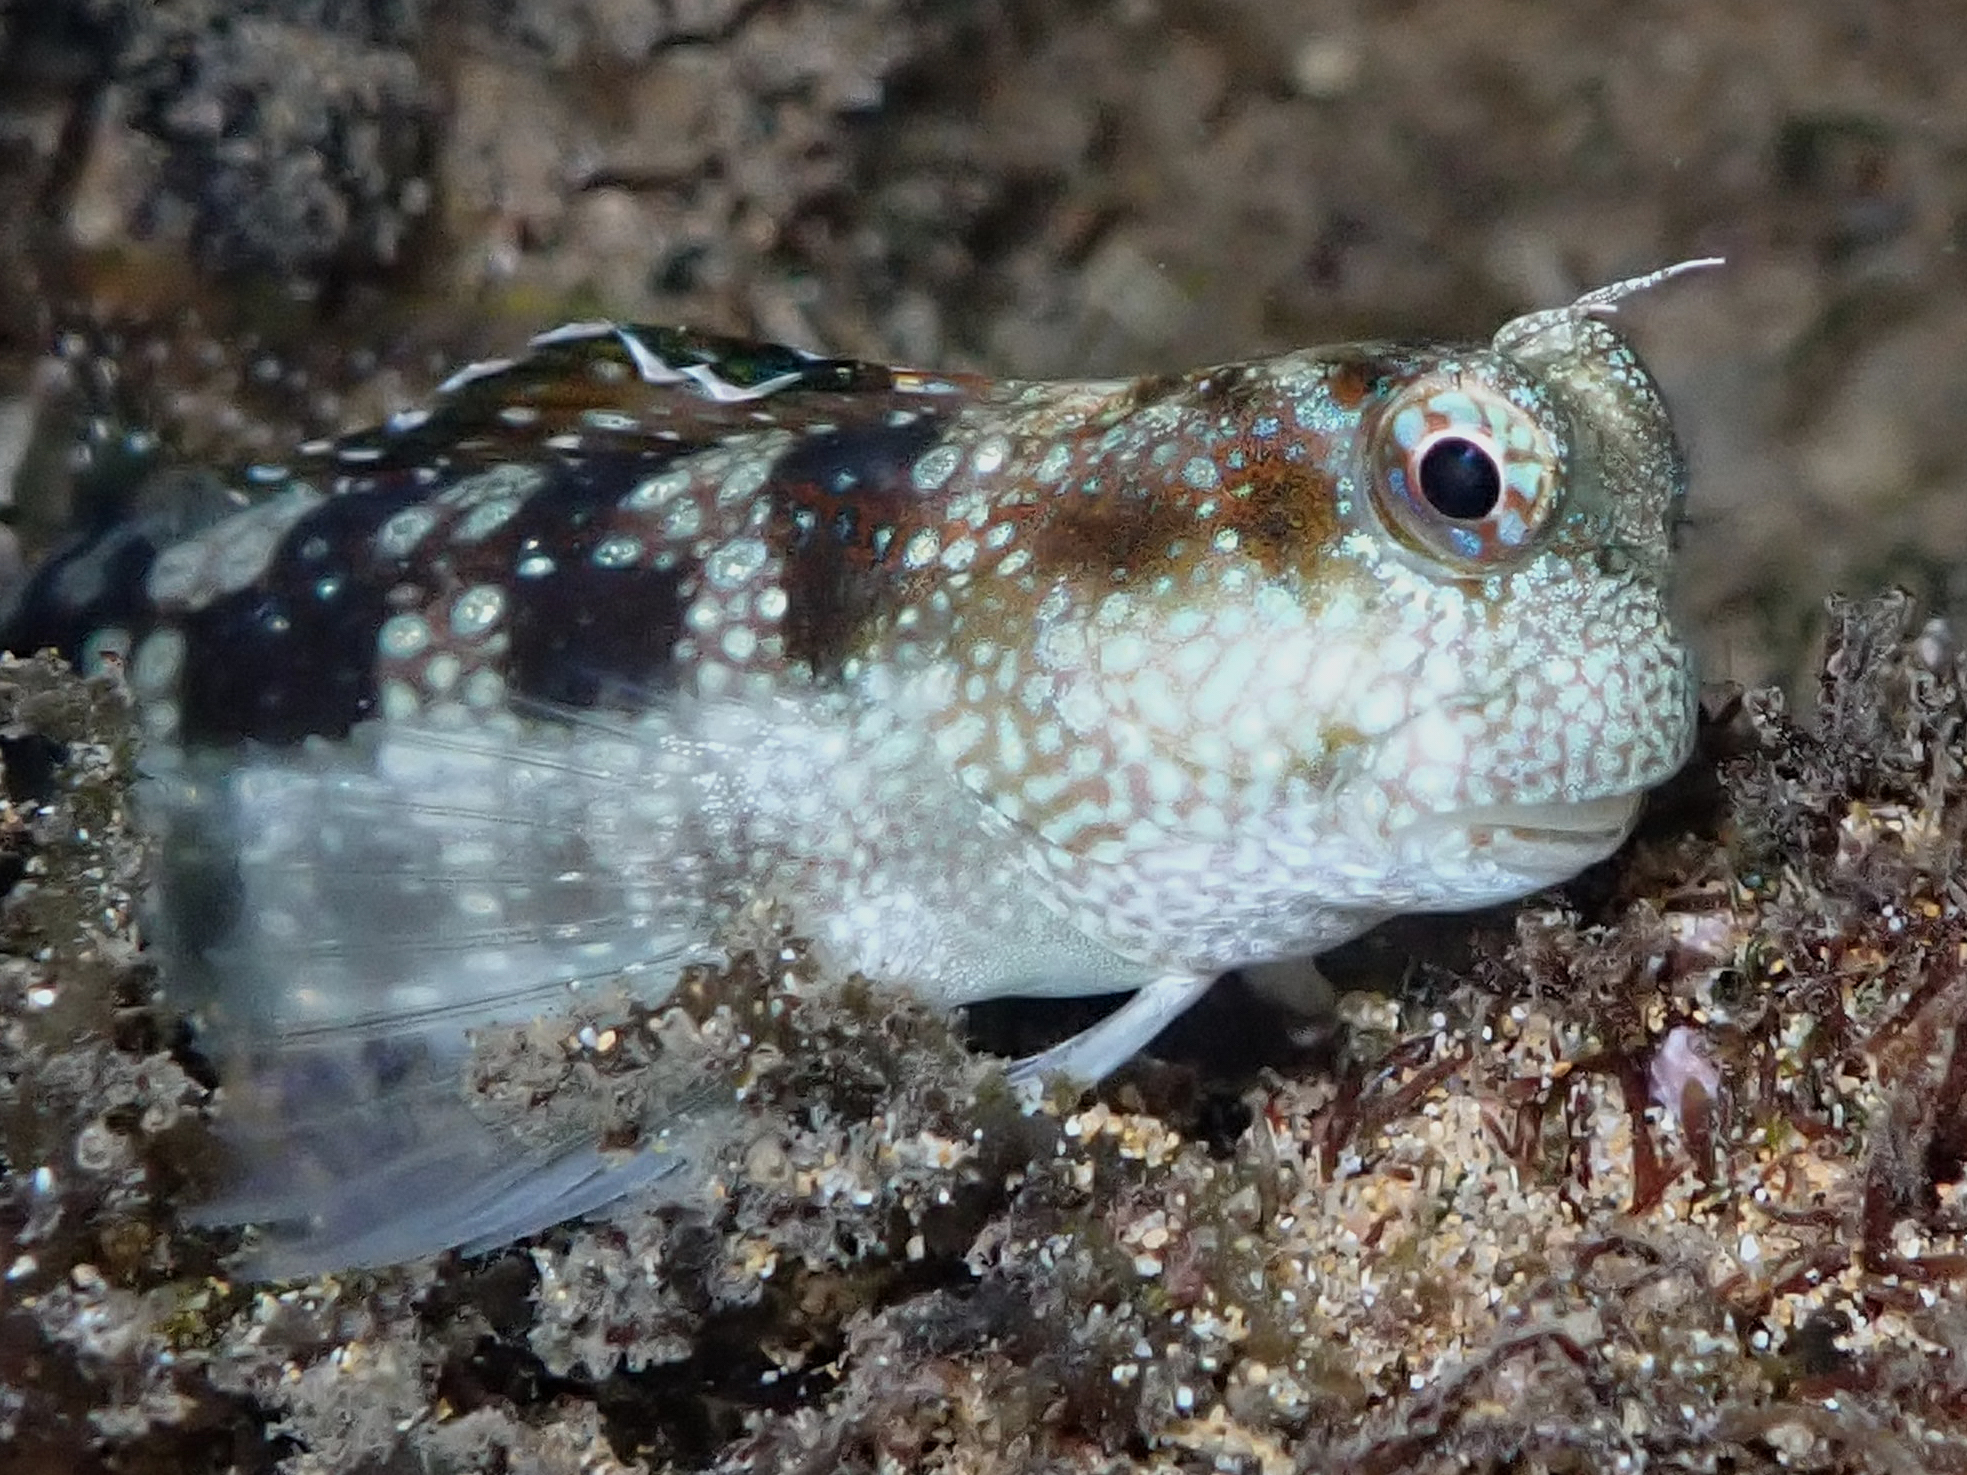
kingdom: Animalia
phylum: Chordata
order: Perciformes
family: Blenniidae
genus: Blenniella
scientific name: Blenniella gibbifrons
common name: Picture rockskipper
